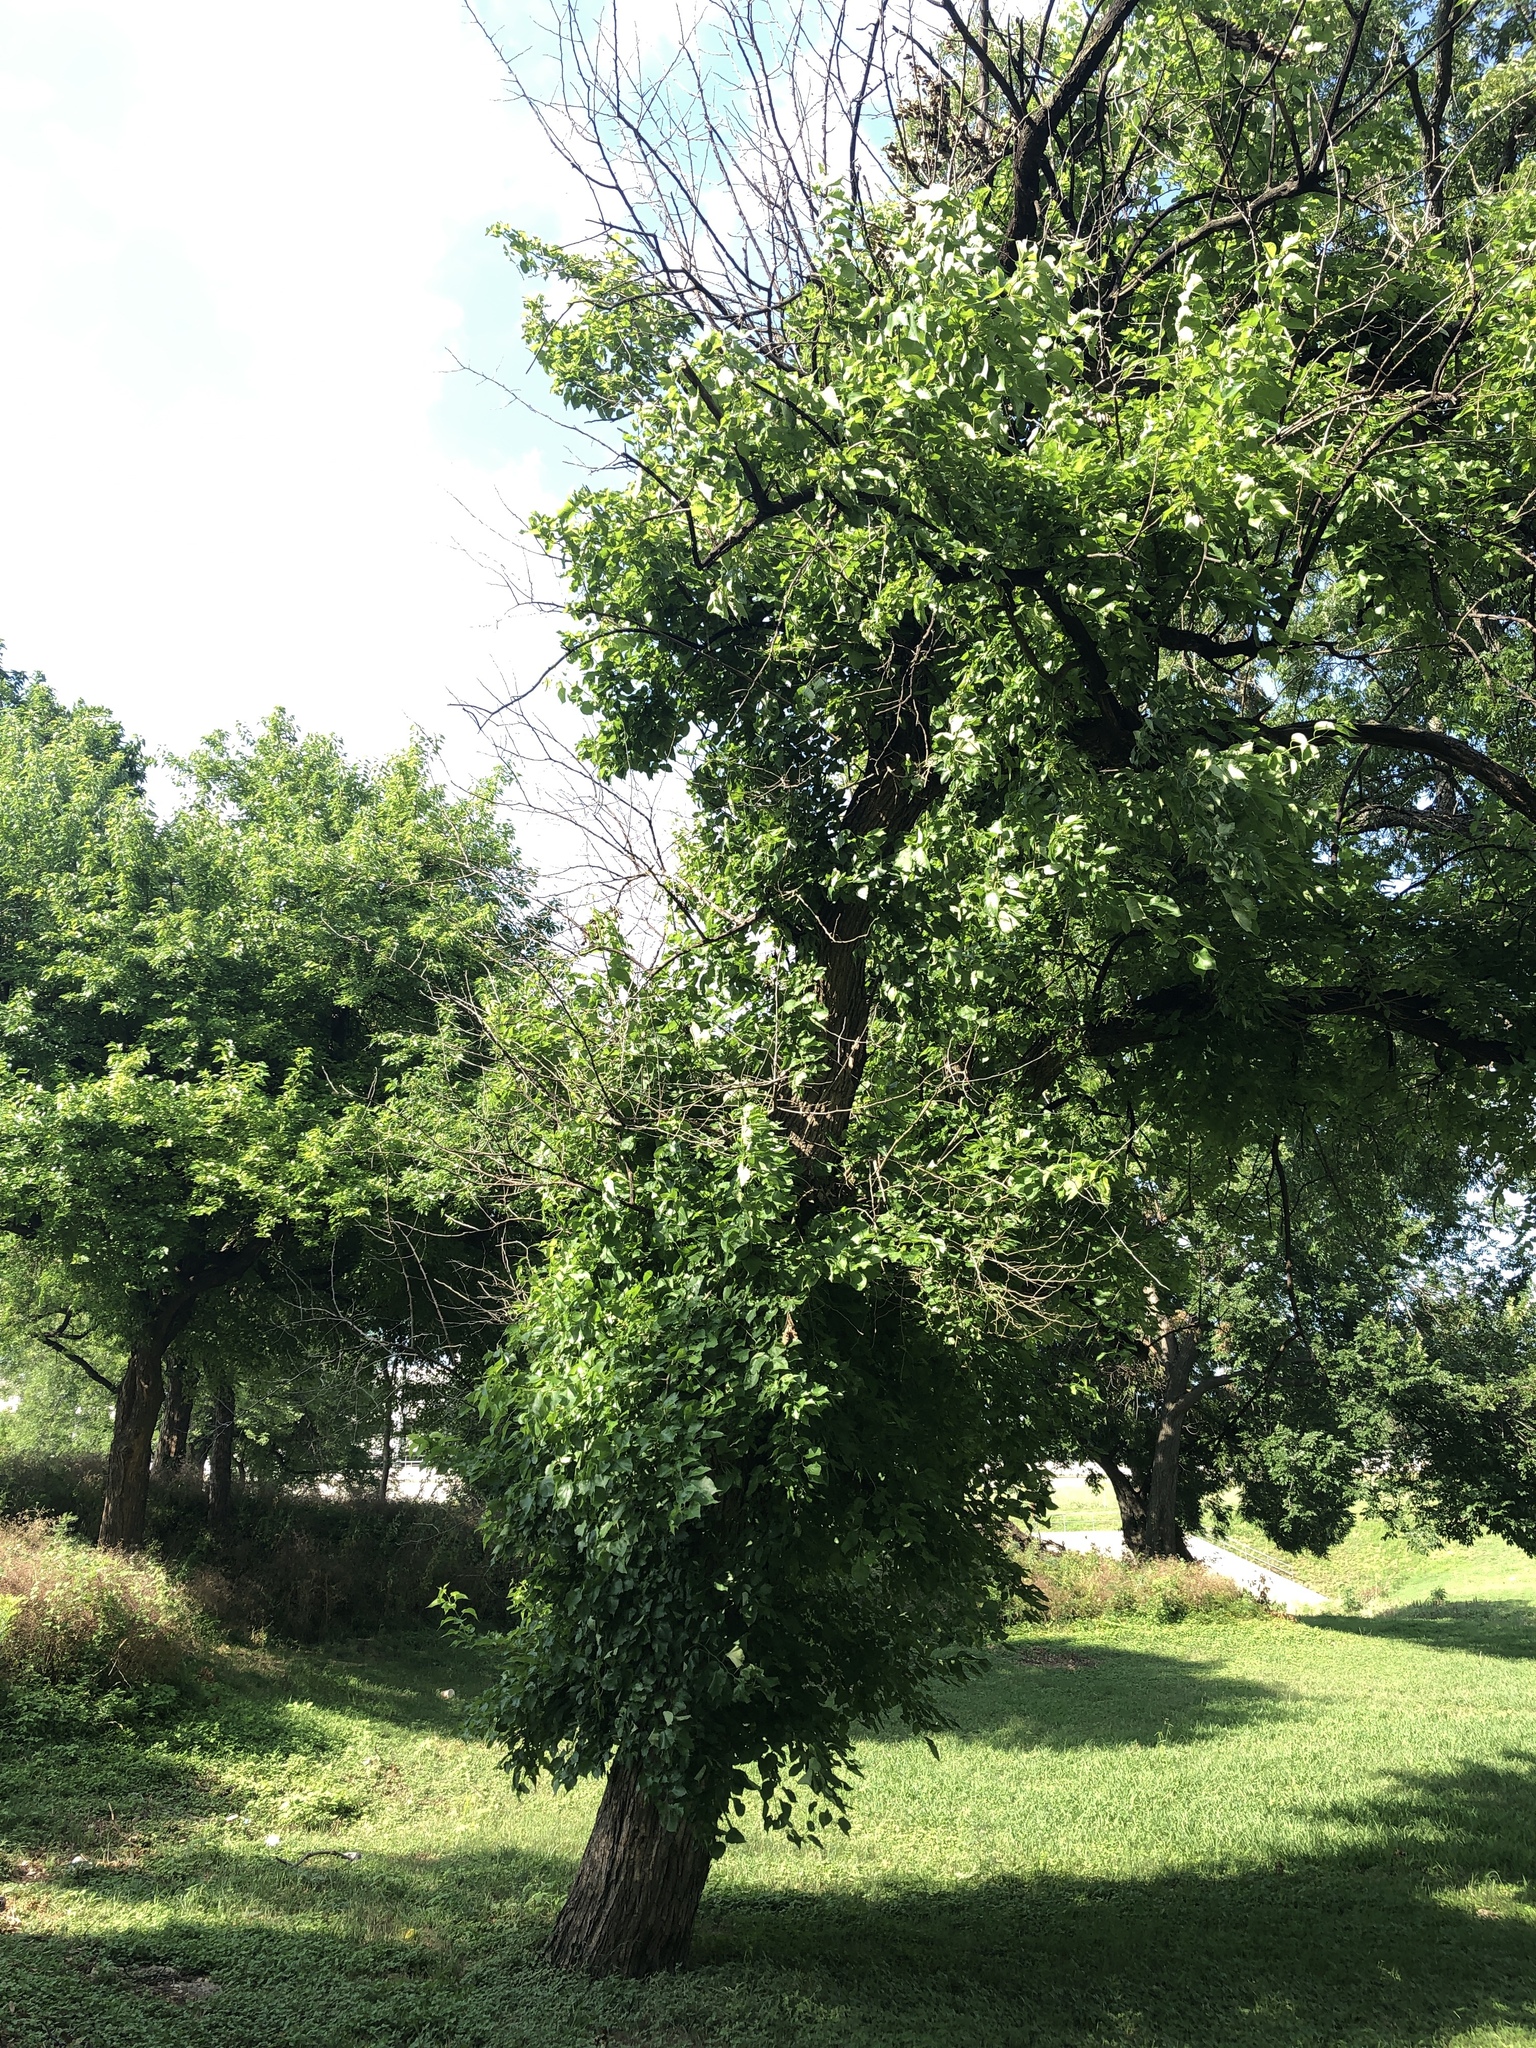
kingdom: Plantae
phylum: Tracheophyta
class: Magnoliopsida
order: Rosales
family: Moraceae
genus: Maclura
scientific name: Maclura pomifera
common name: Osage-orange
